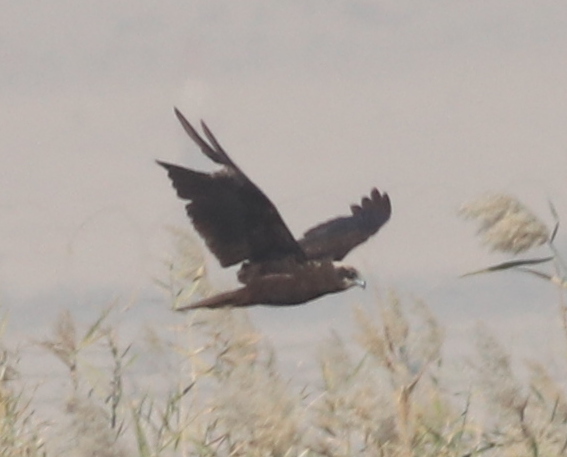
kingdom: Animalia
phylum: Chordata
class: Aves
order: Accipitriformes
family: Accipitridae
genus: Circus
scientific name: Circus aeruginosus
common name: Western marsh harrier
